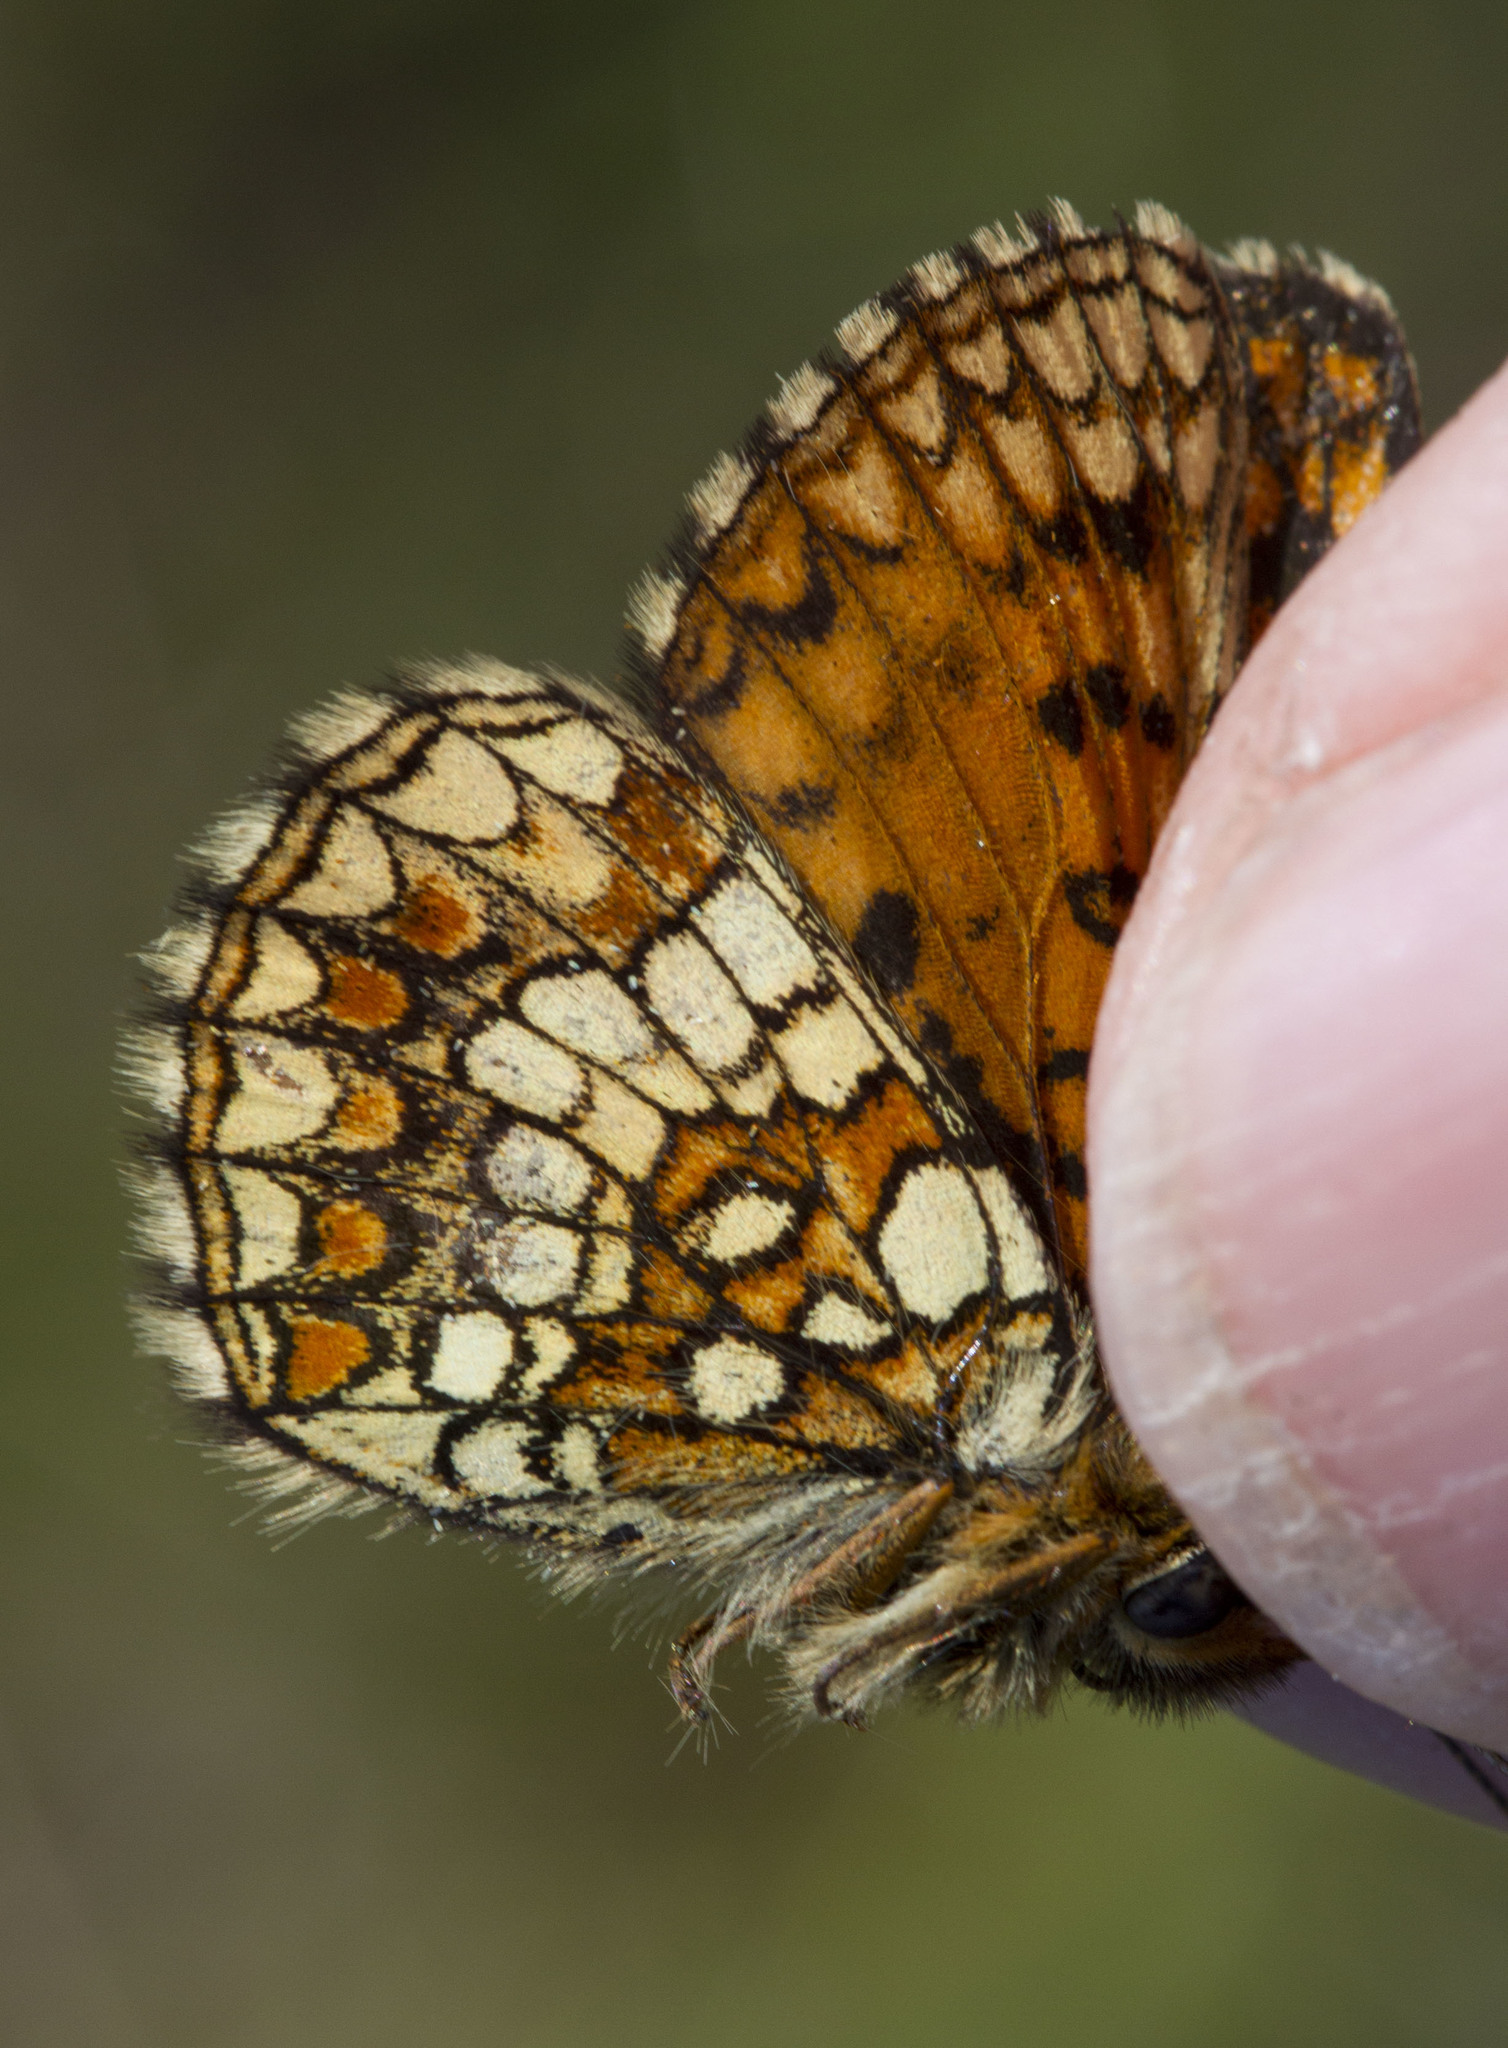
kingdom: Animalia
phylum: Arthropoda
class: Insecta
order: Lepidoptera
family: Nymphalidae
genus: Mellicta
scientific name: Mellicta aurelia
